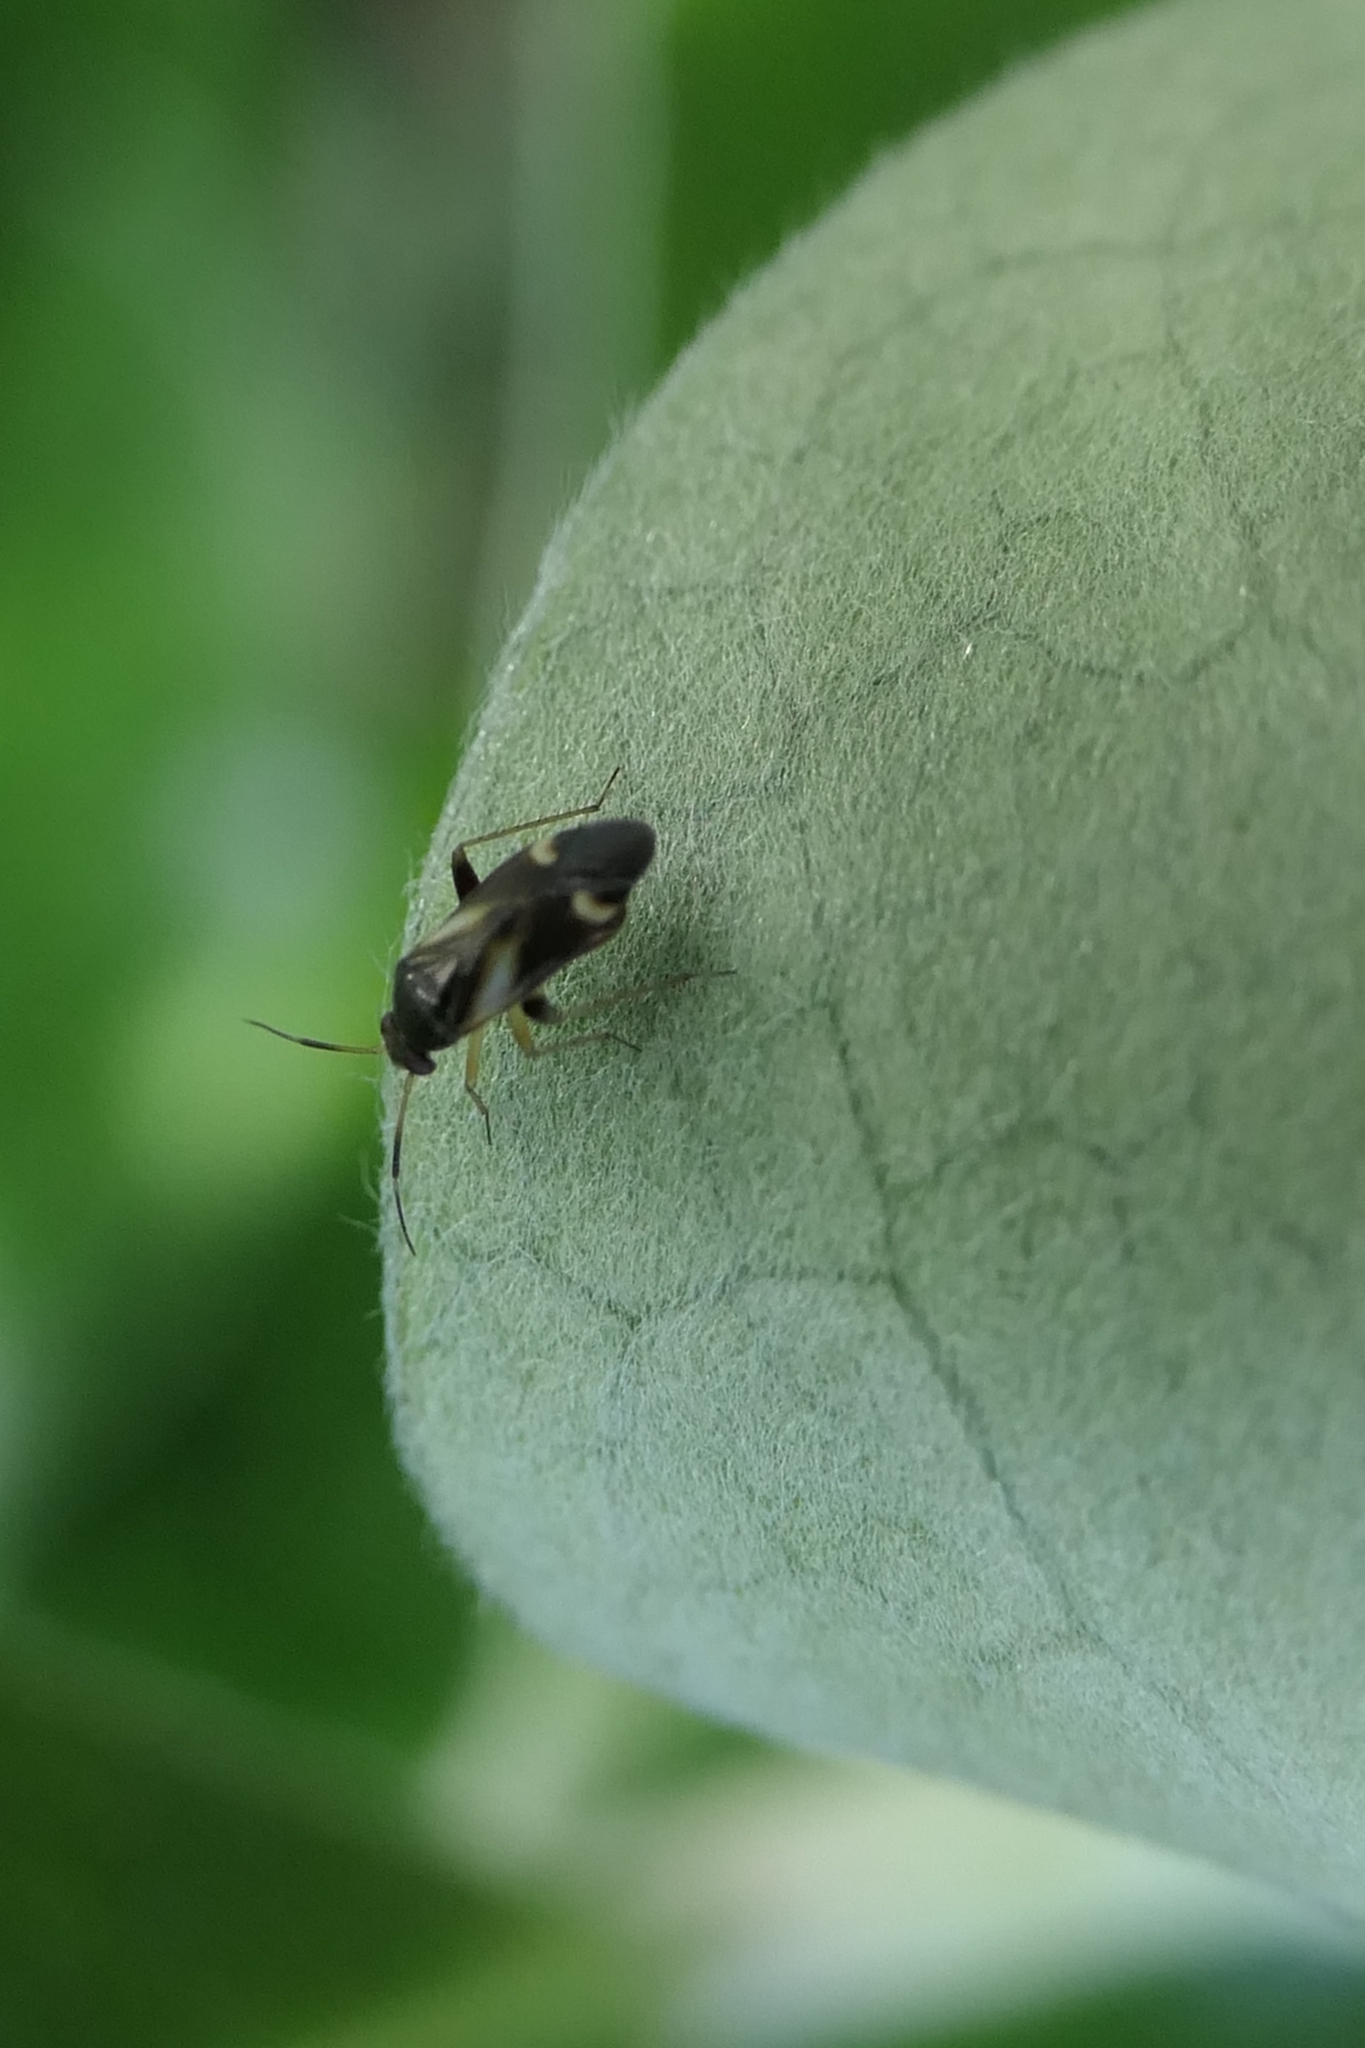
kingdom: Animalia
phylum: Arthropoda
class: Insecta
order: Hemiptera
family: Miridae
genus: Ausejanus
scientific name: Ausejanus albisignatus
